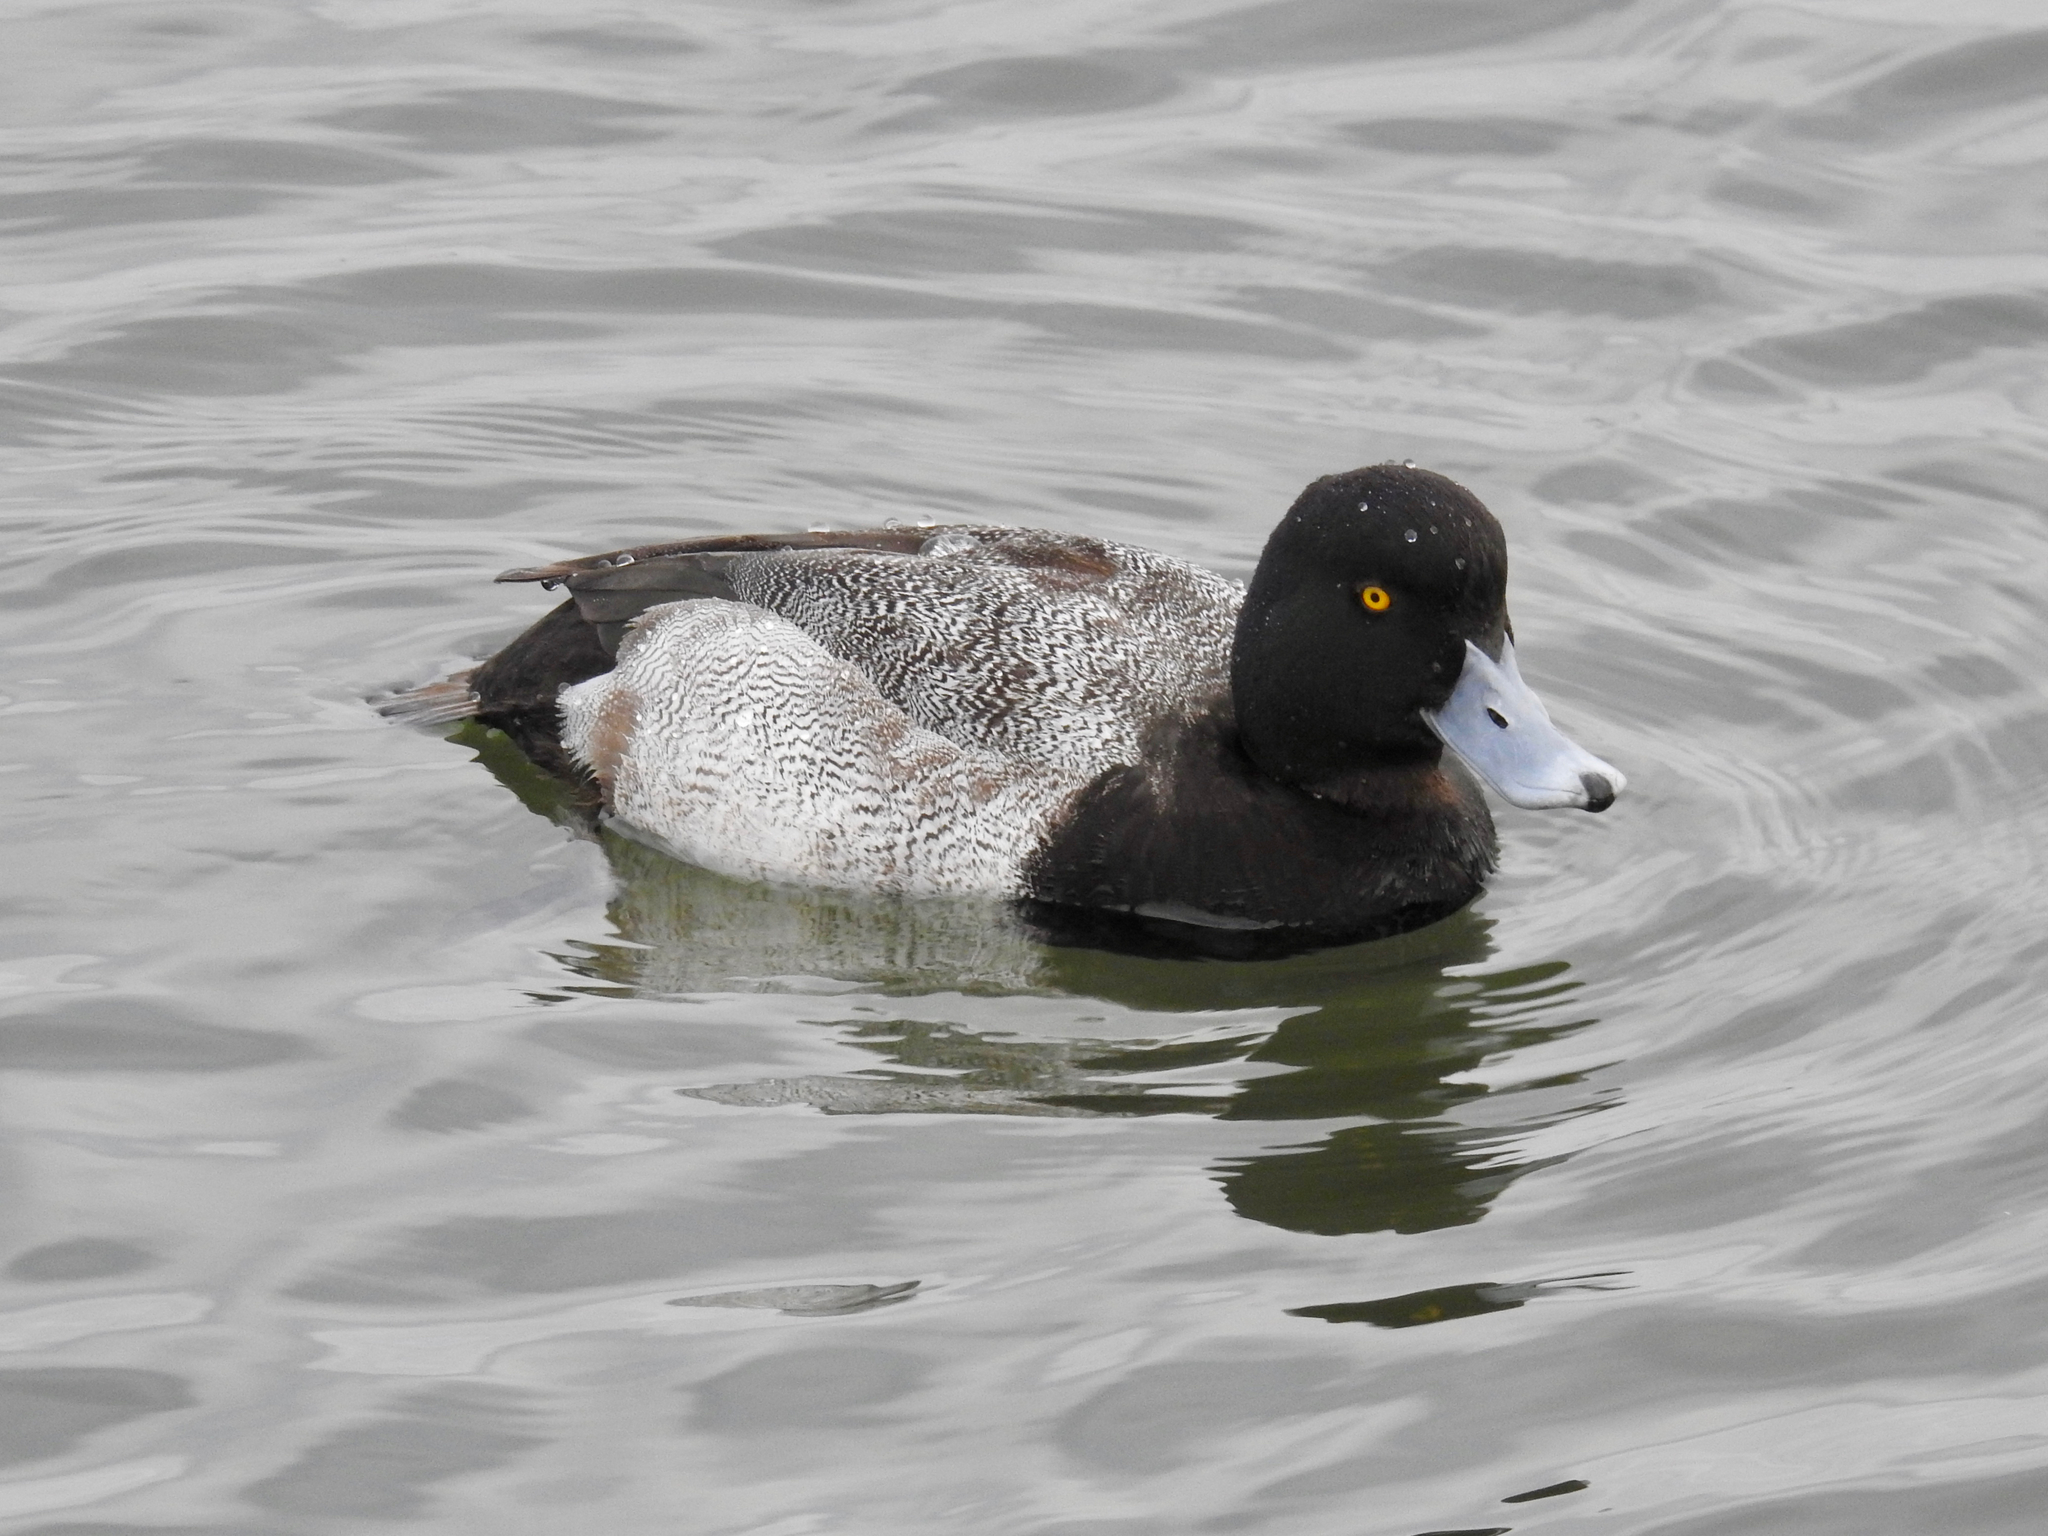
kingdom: Animalia
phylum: Chordata
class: Aves
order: Anseriformes
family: Anatidae
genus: Aythya
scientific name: Aythya affinis
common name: Lesser scaup
